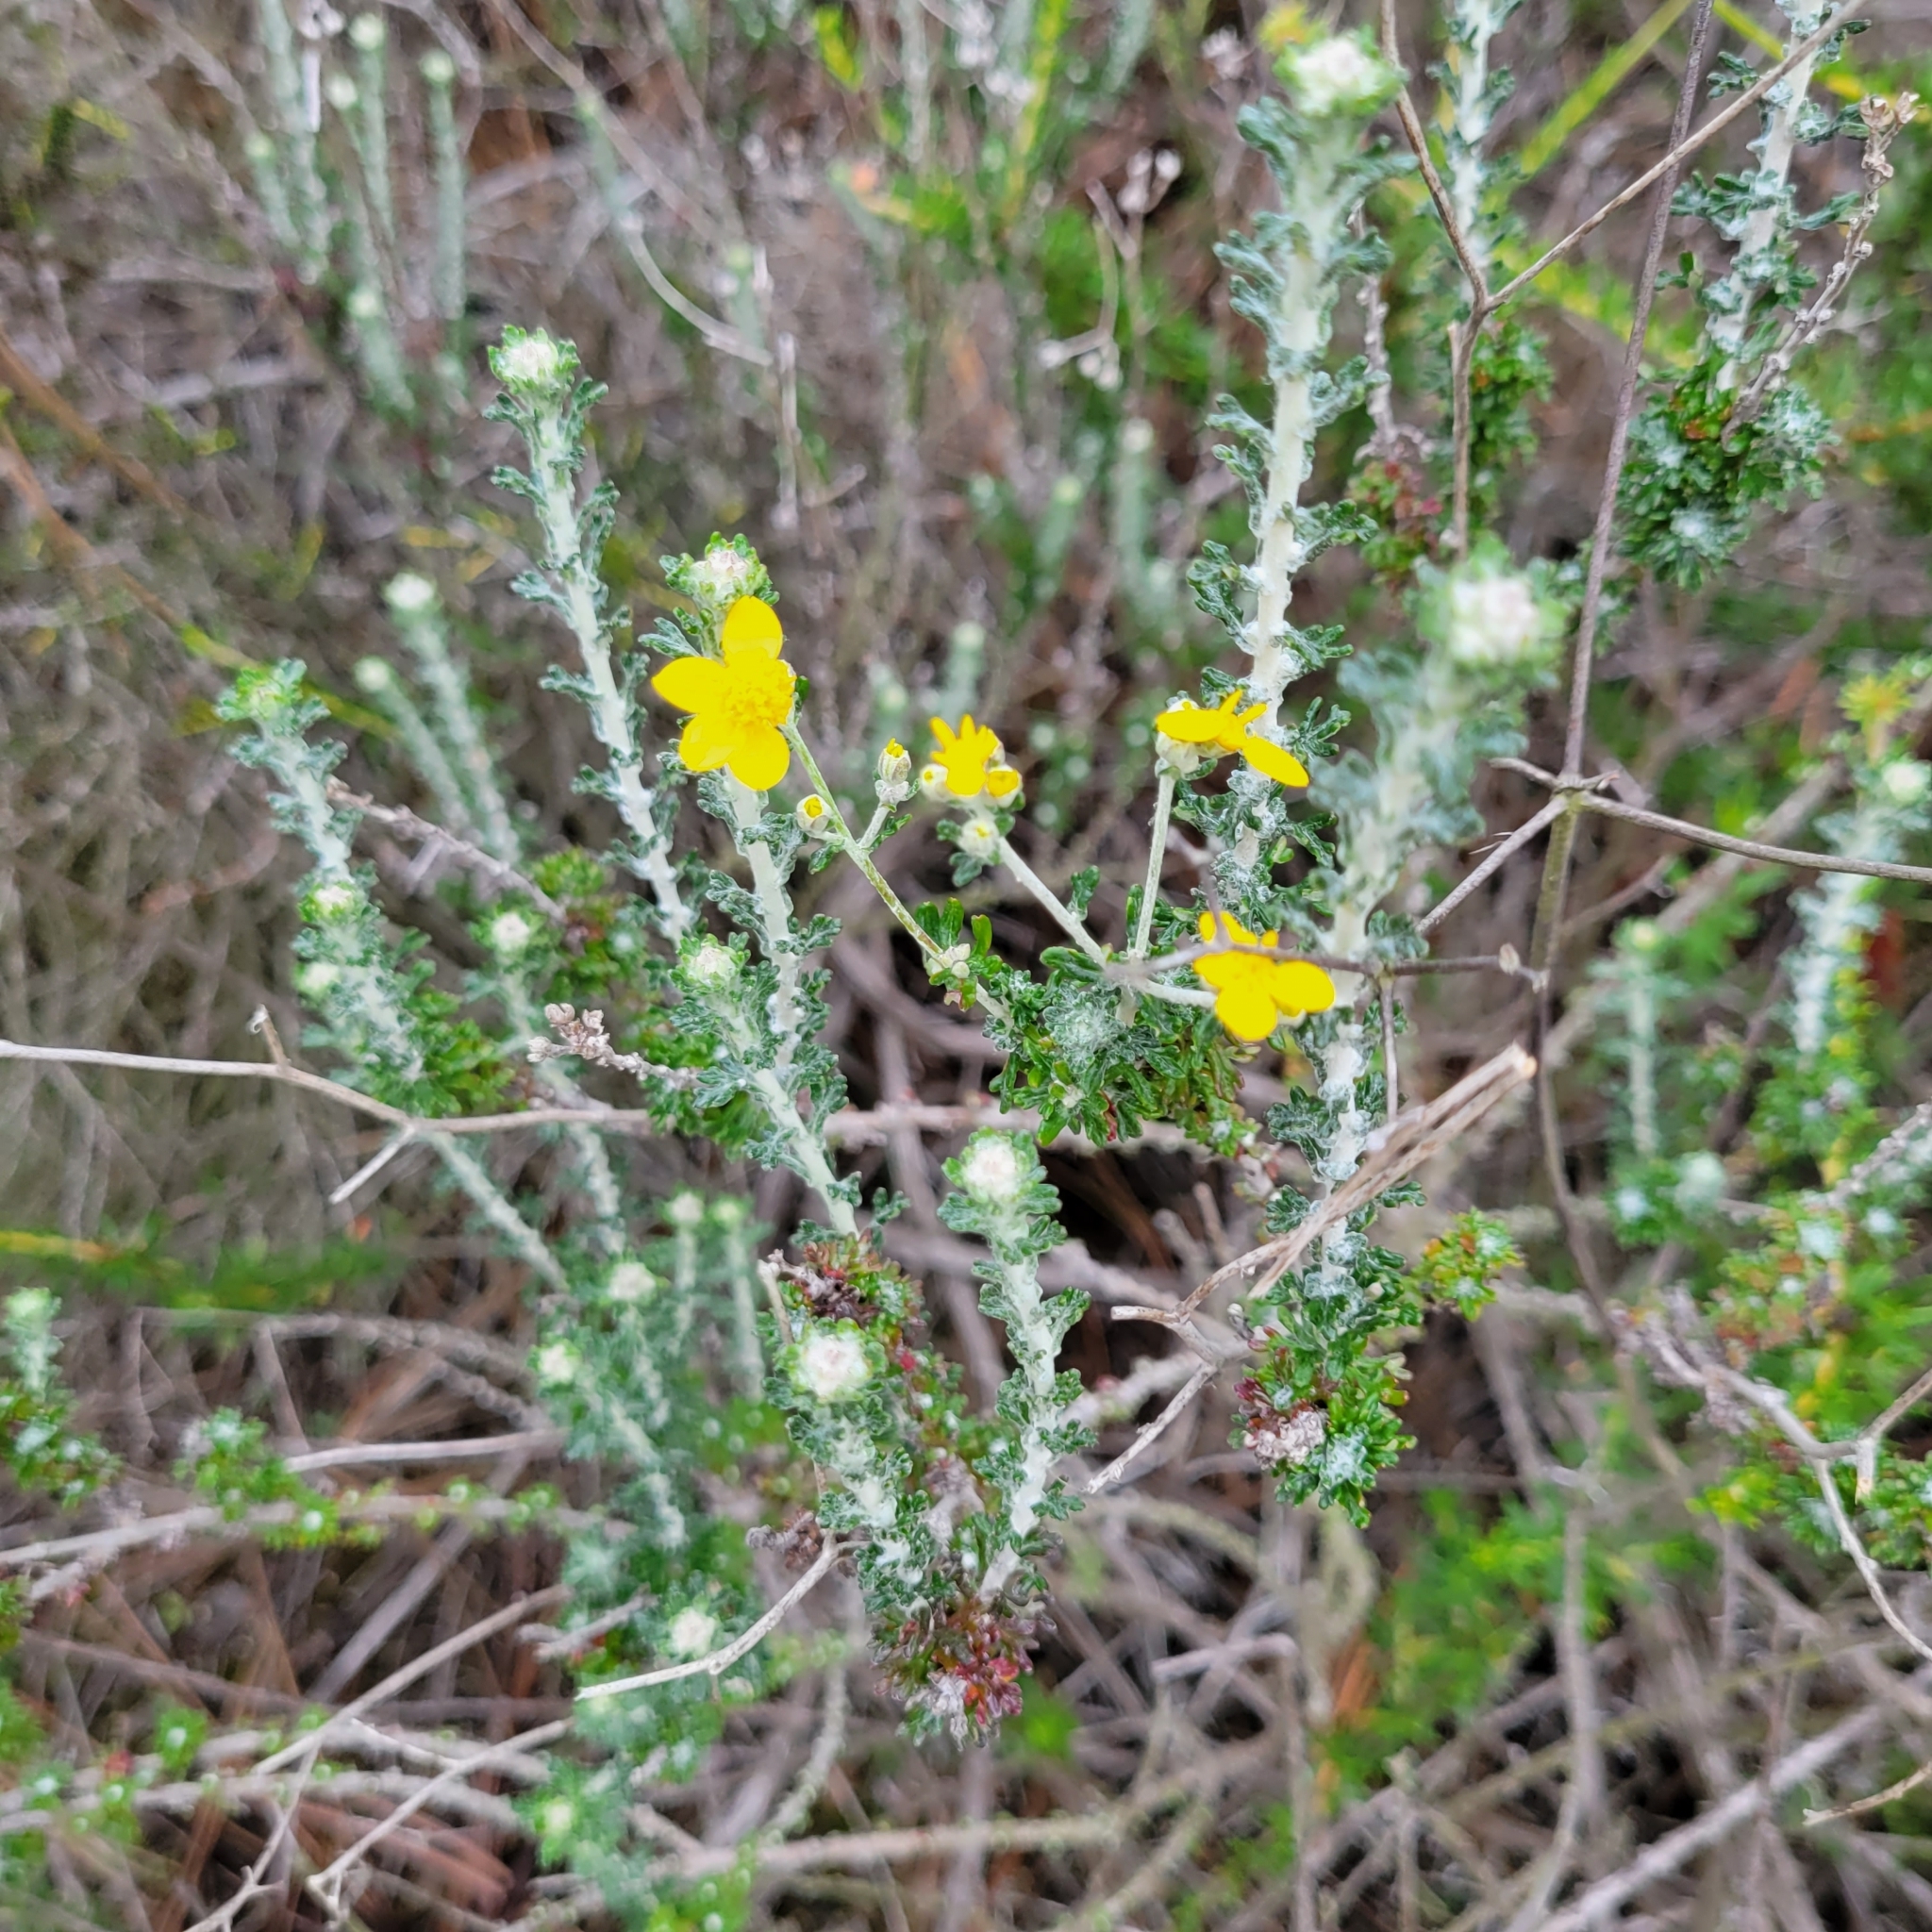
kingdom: Plantae
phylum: Tracheophyta
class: Magnoliopsida
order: Asterales
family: Asteraceae
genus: Eriophyllum
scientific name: Eriophyllum confertiflorum
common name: Golden-yarrow
